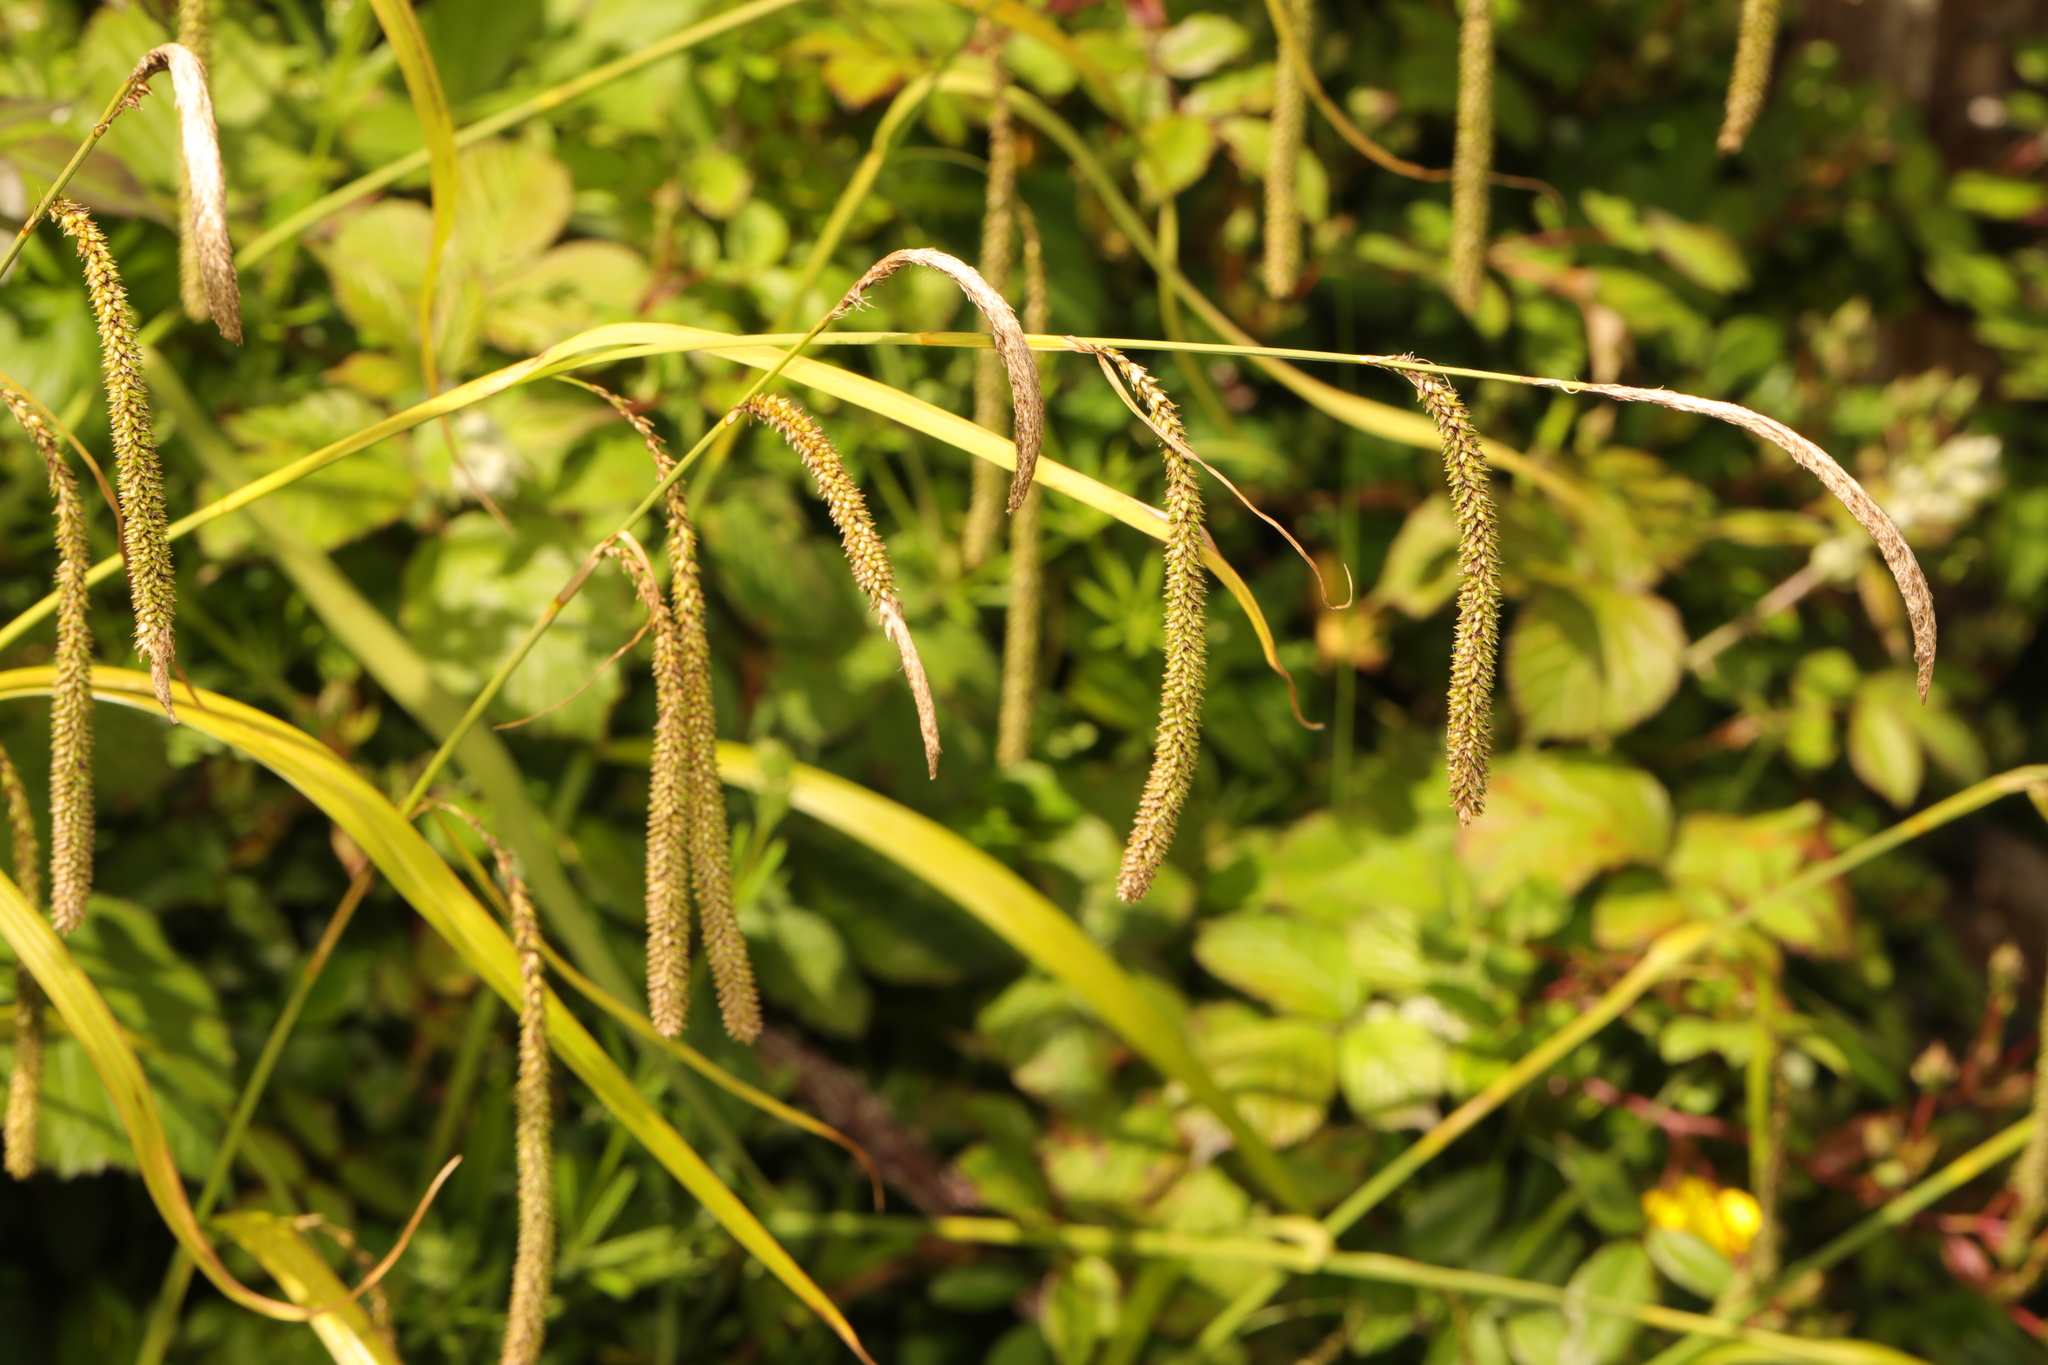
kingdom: Plantae
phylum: Tracheophyta
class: Liliopsida
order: Poales
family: Cyperaceae
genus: Carex
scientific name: Carex pendula
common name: Pendulous sedge
